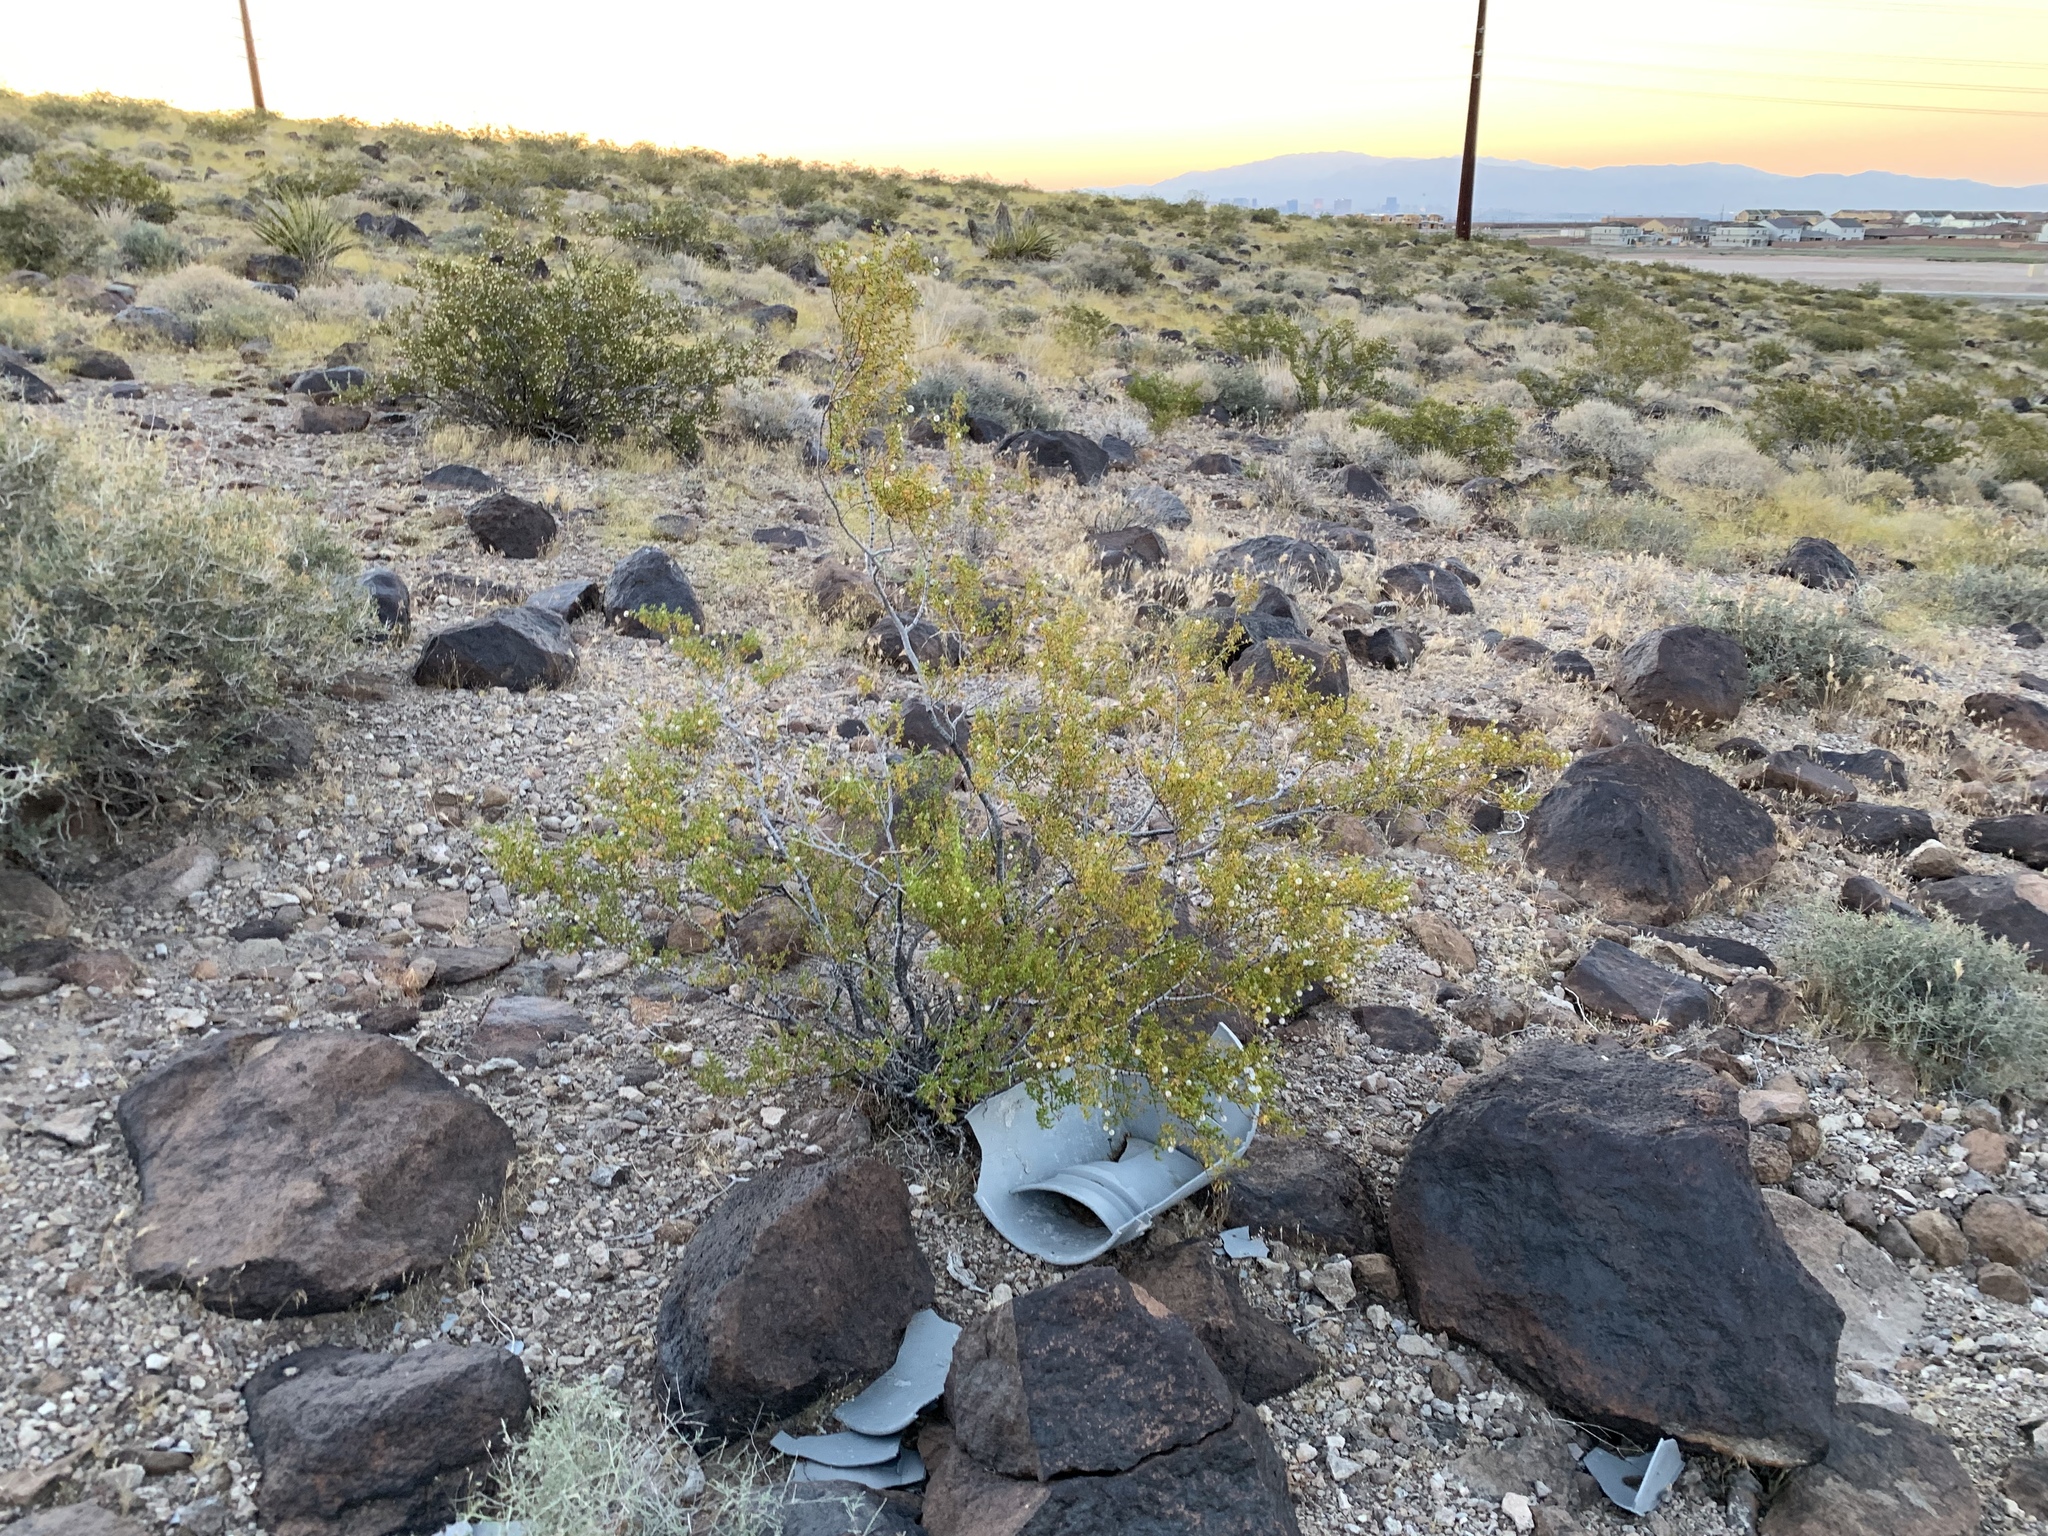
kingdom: Plantae
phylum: Tracheophyta
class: Magnoliopsida
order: Zygophyllales
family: Zygophyllaceae
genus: Larrea
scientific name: Larrea tridentata
